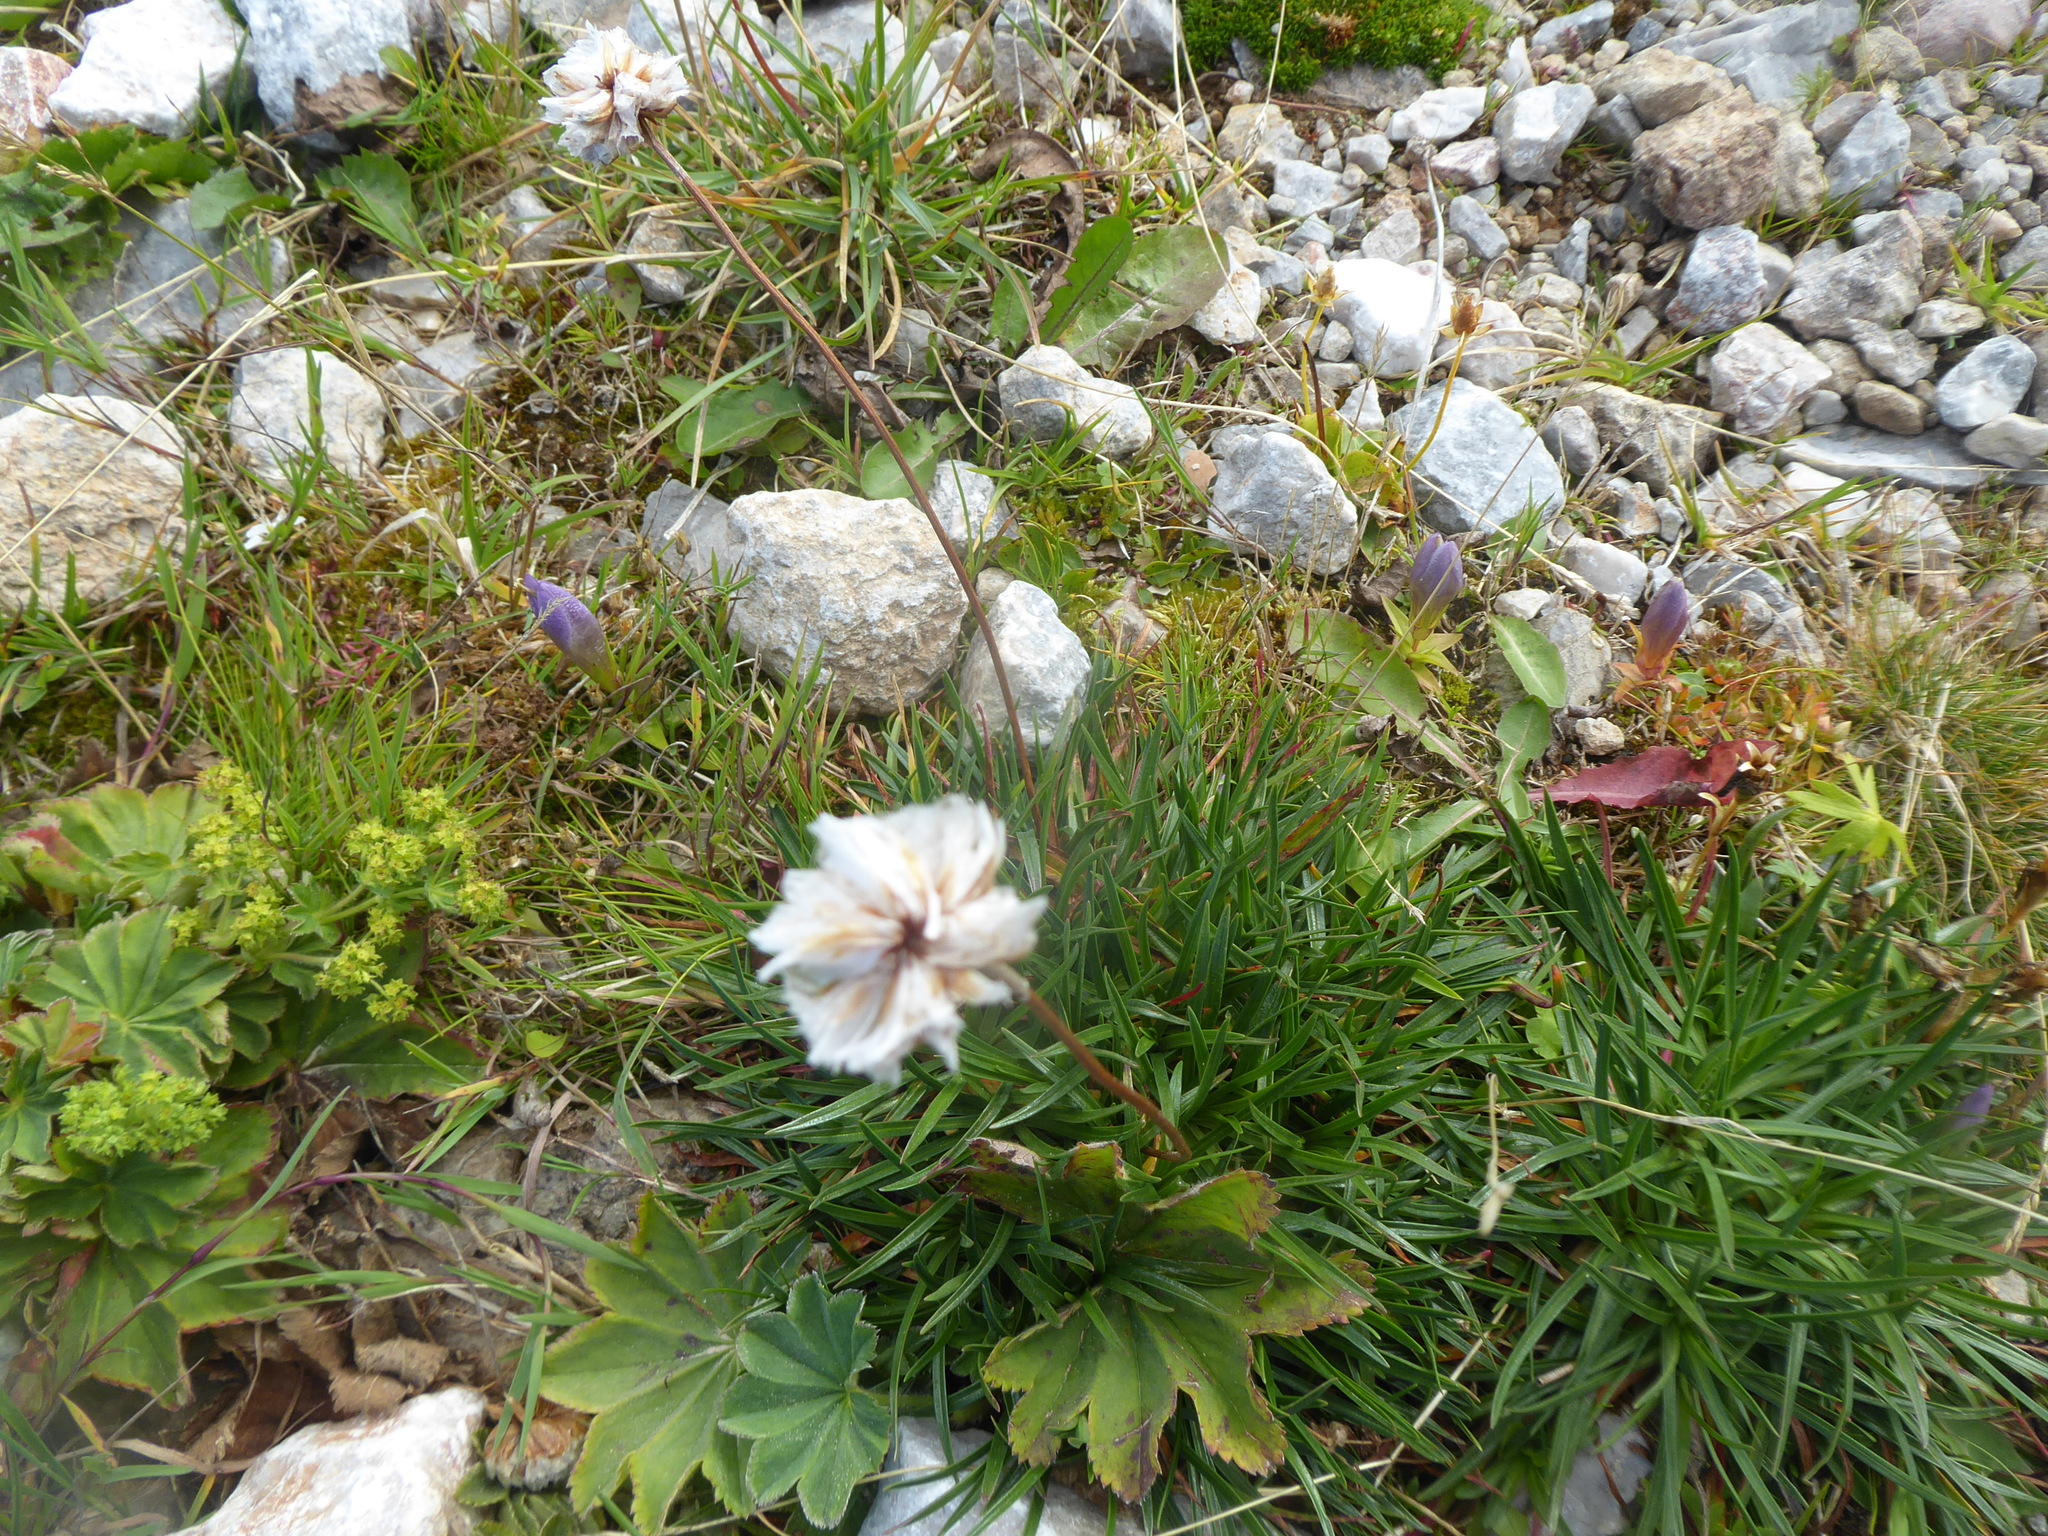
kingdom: Plantae
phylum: Tracheophyta
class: Magnoliopsida
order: Caryophyllales
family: Plumbaginaceae
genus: Armeria
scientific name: Armeria alpina
